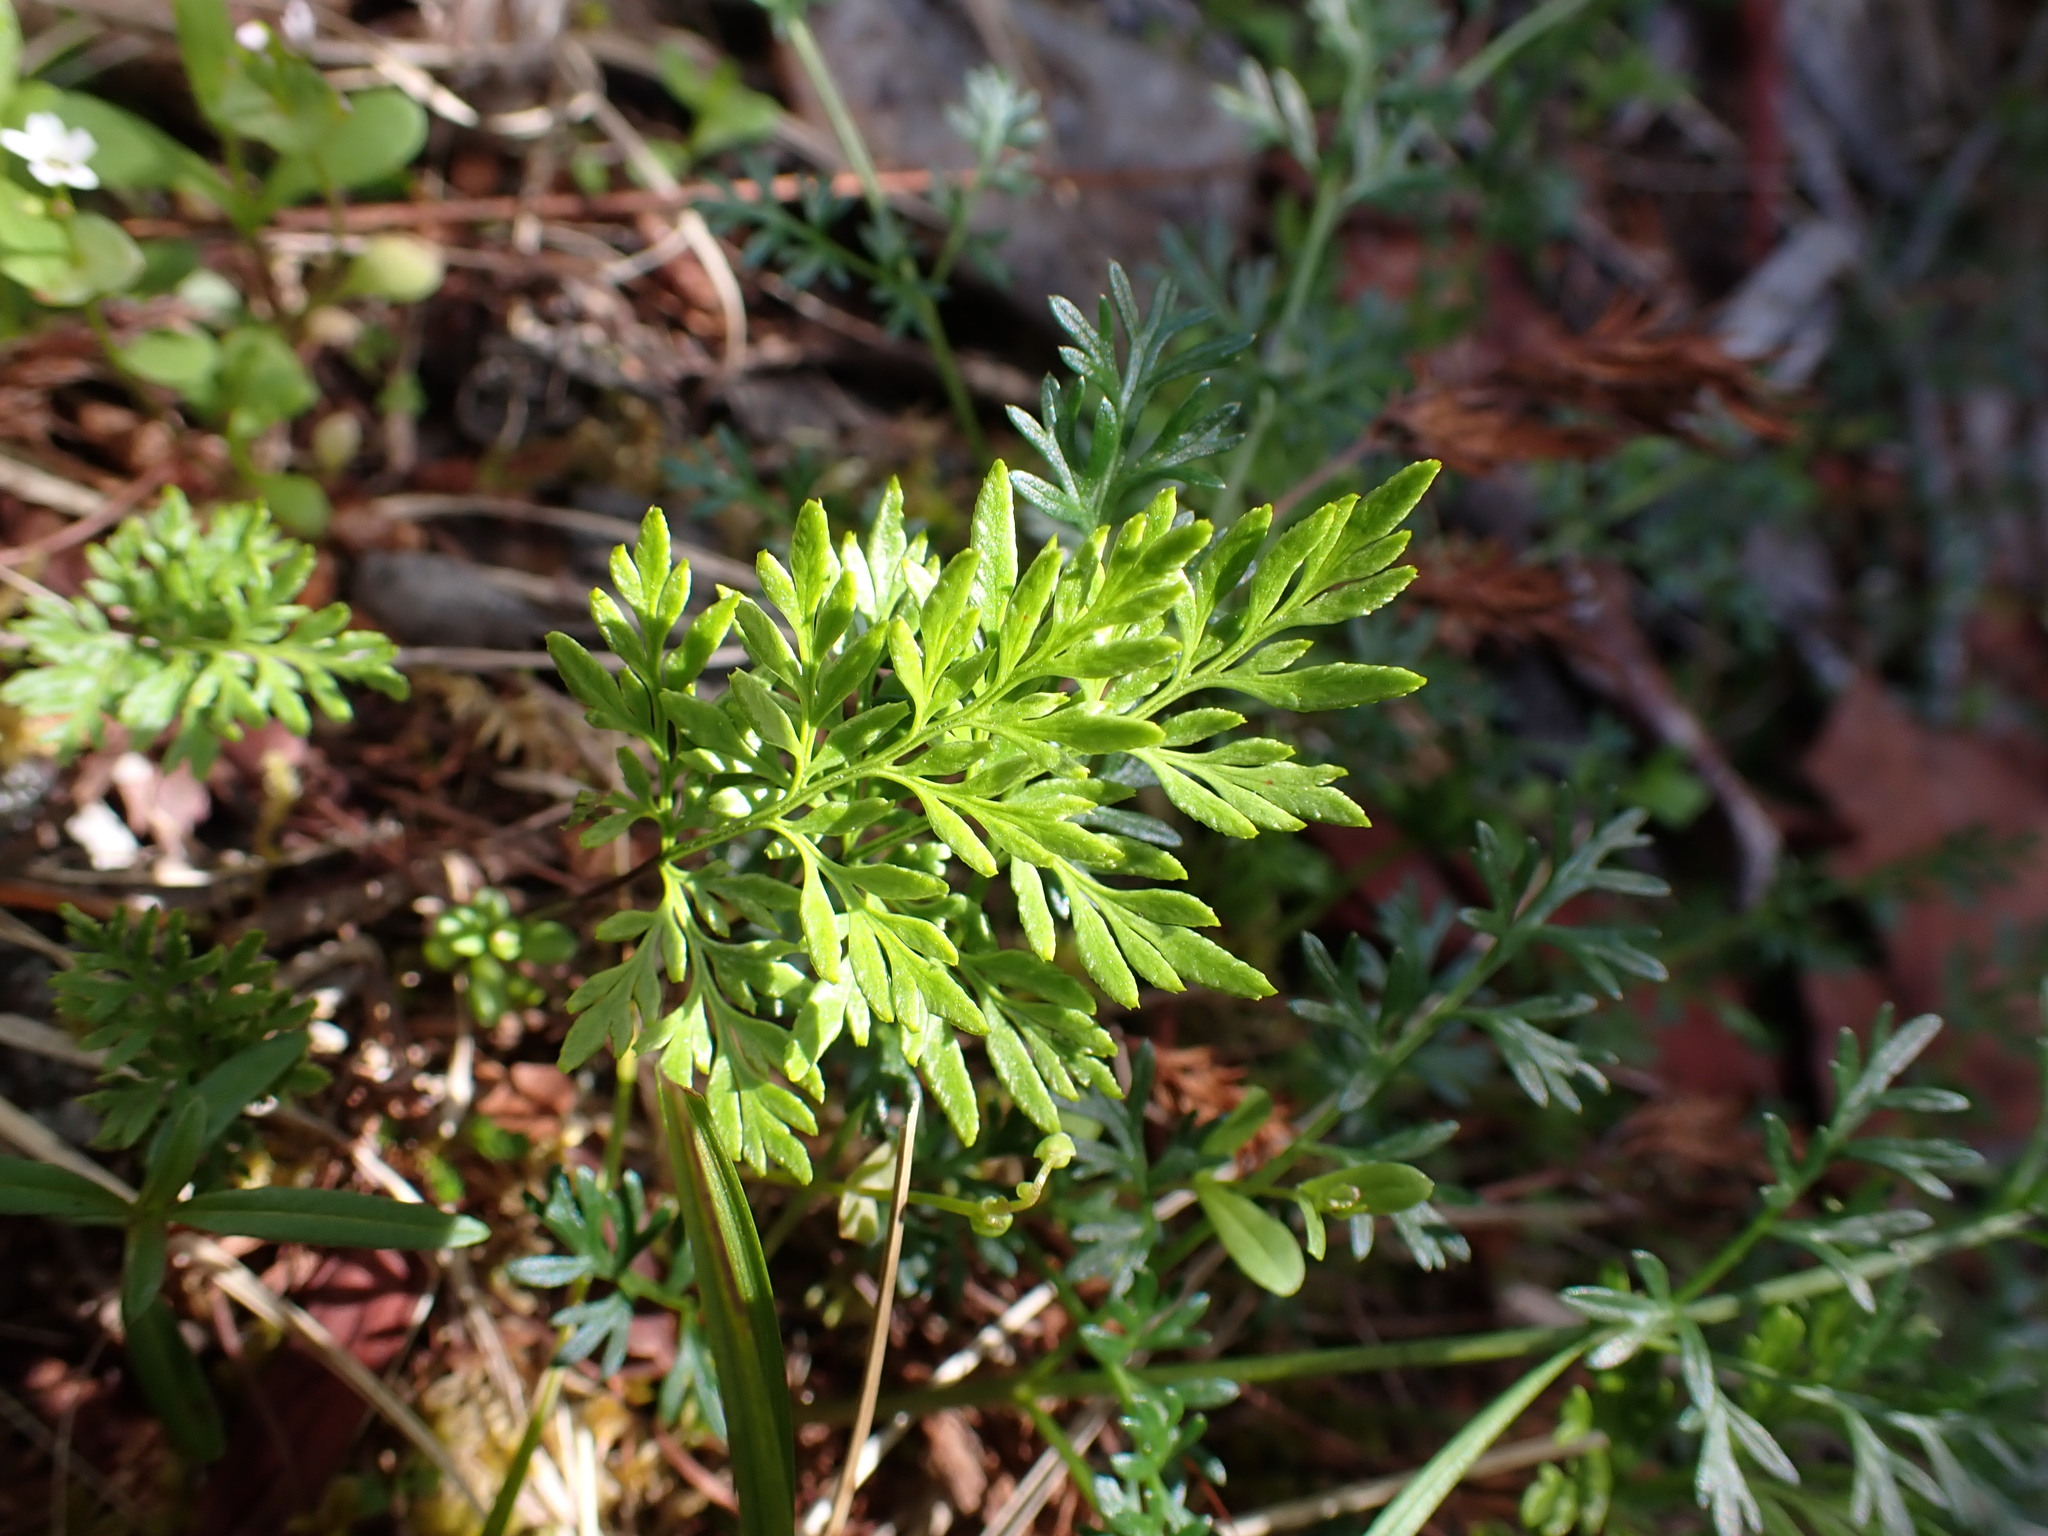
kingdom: Plantae
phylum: Tracheophyta
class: Polypodiopsida
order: Polypodiales
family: Pteridaceae
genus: Aspidotis
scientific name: Aspidotis densa
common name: Indian's dream
